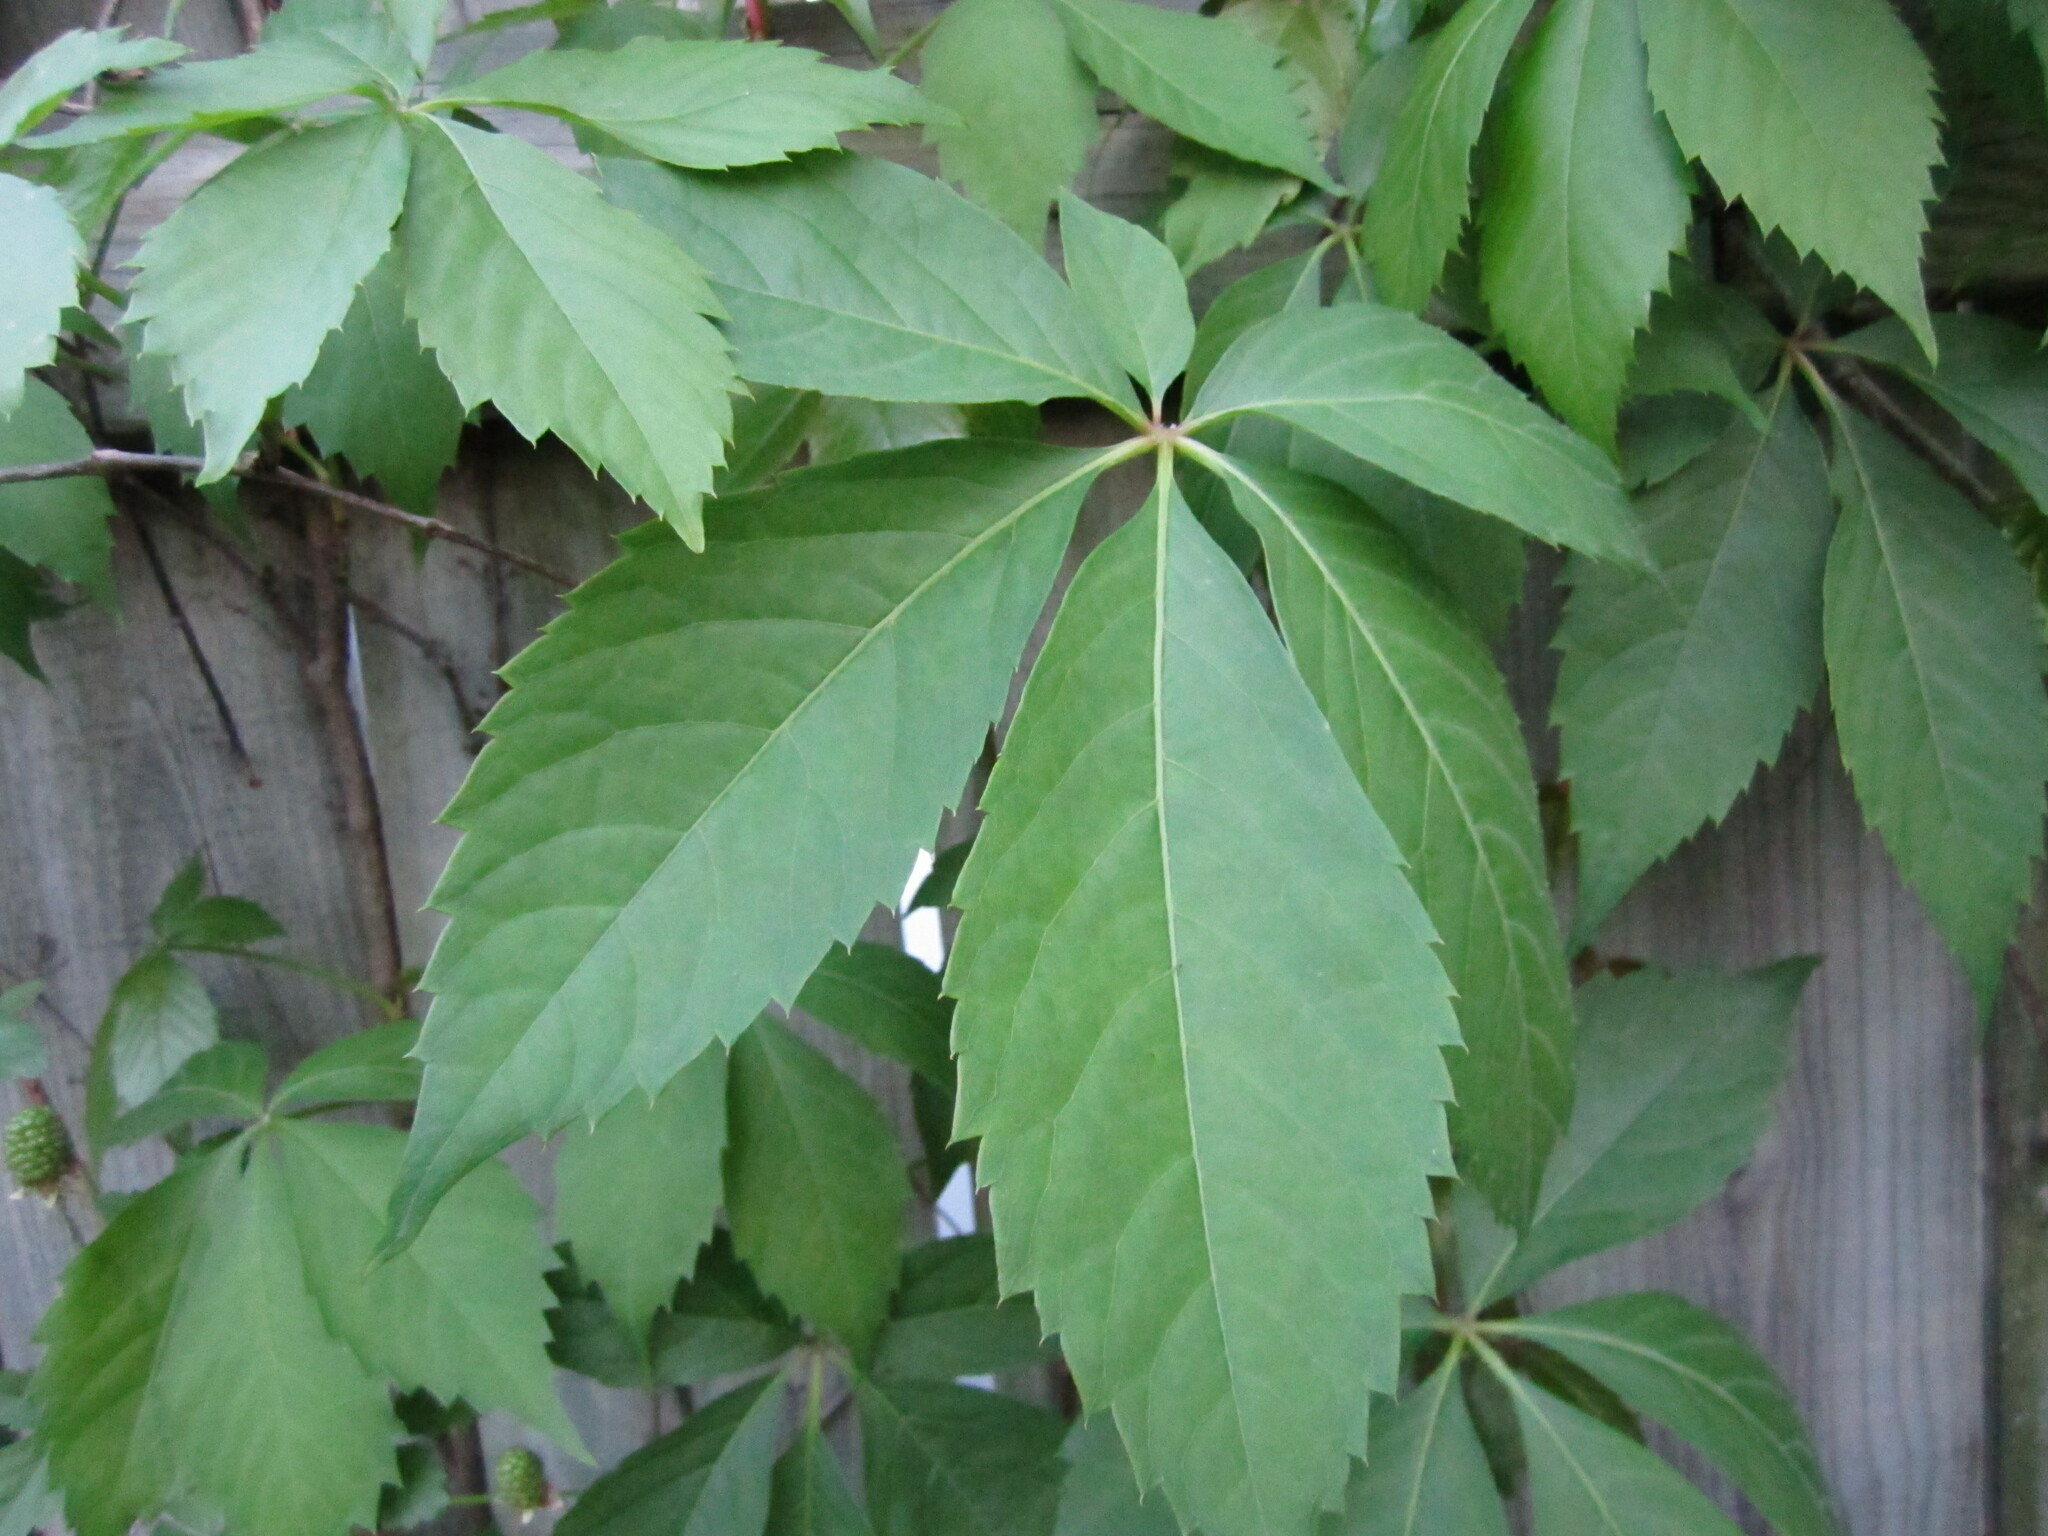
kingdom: Plantae
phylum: Tracheophyta
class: Magnoliopsida
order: Vitales
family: Vitaceae
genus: Parthenocissus
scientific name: Parthenocissus quinquefolia
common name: Virginia-creeper
